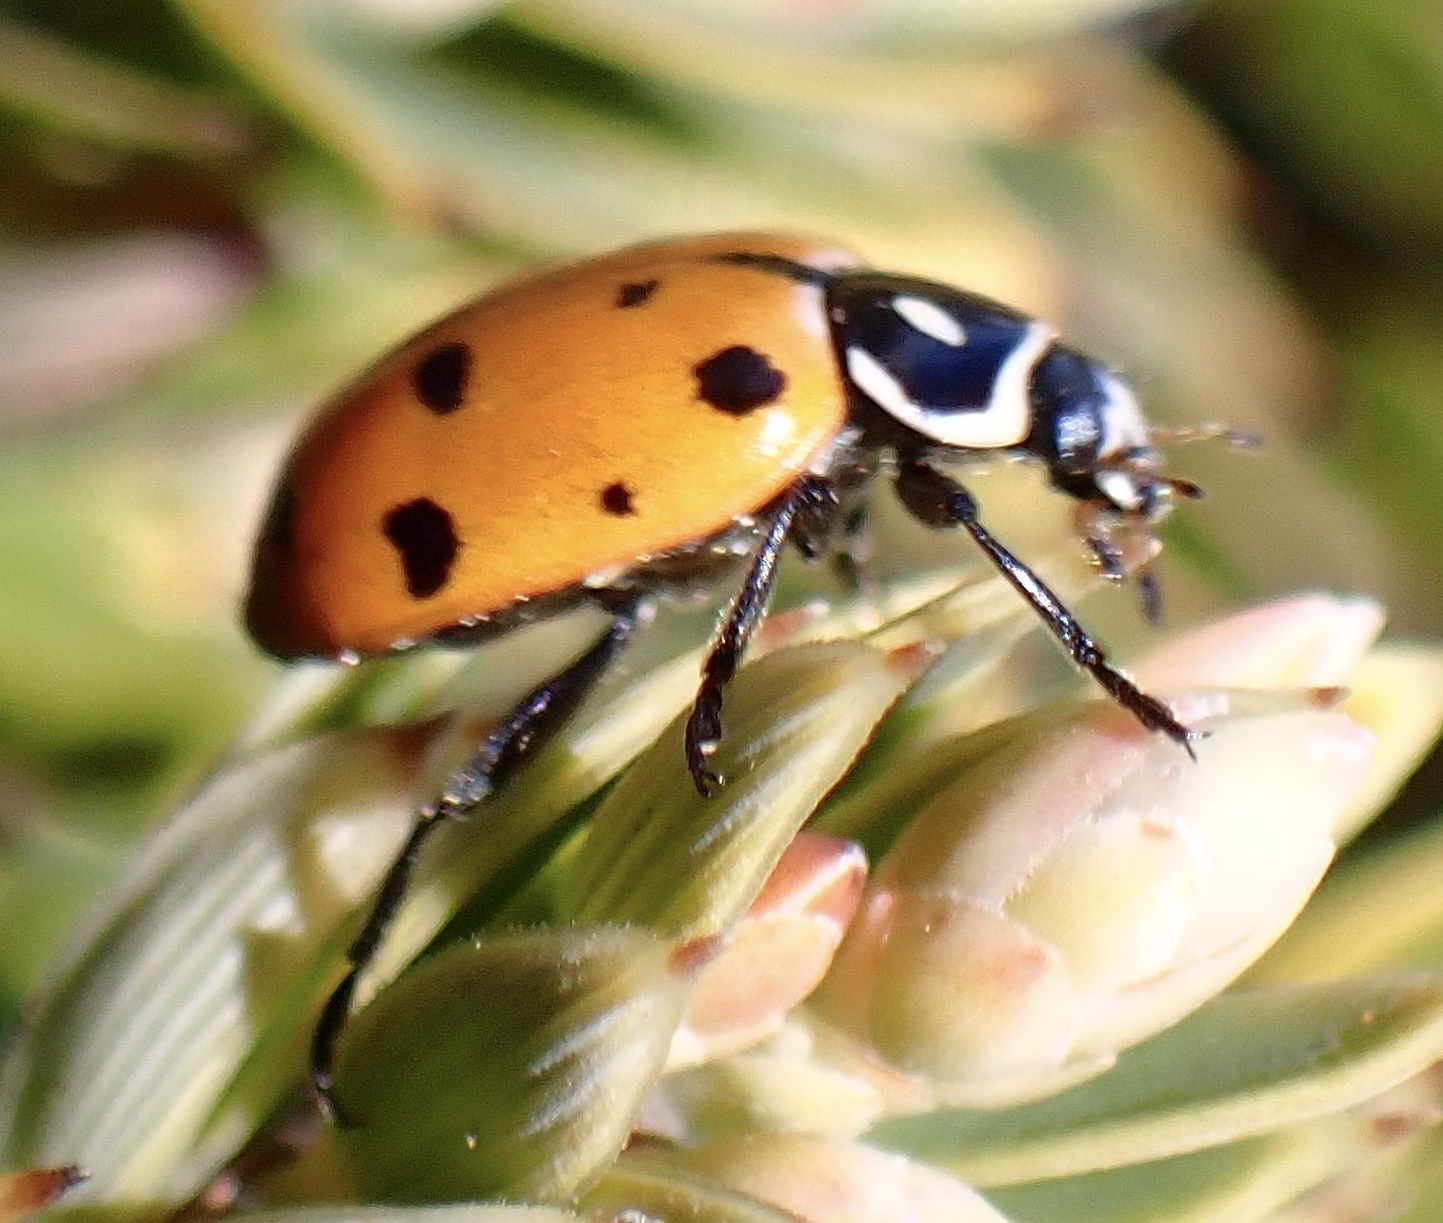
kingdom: Animalia
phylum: Arthropoda
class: Insecta
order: Coleoptera
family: Coccinellidae
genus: Hippodamia
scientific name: Hippodamia convergens
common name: Convergent lady beetle
